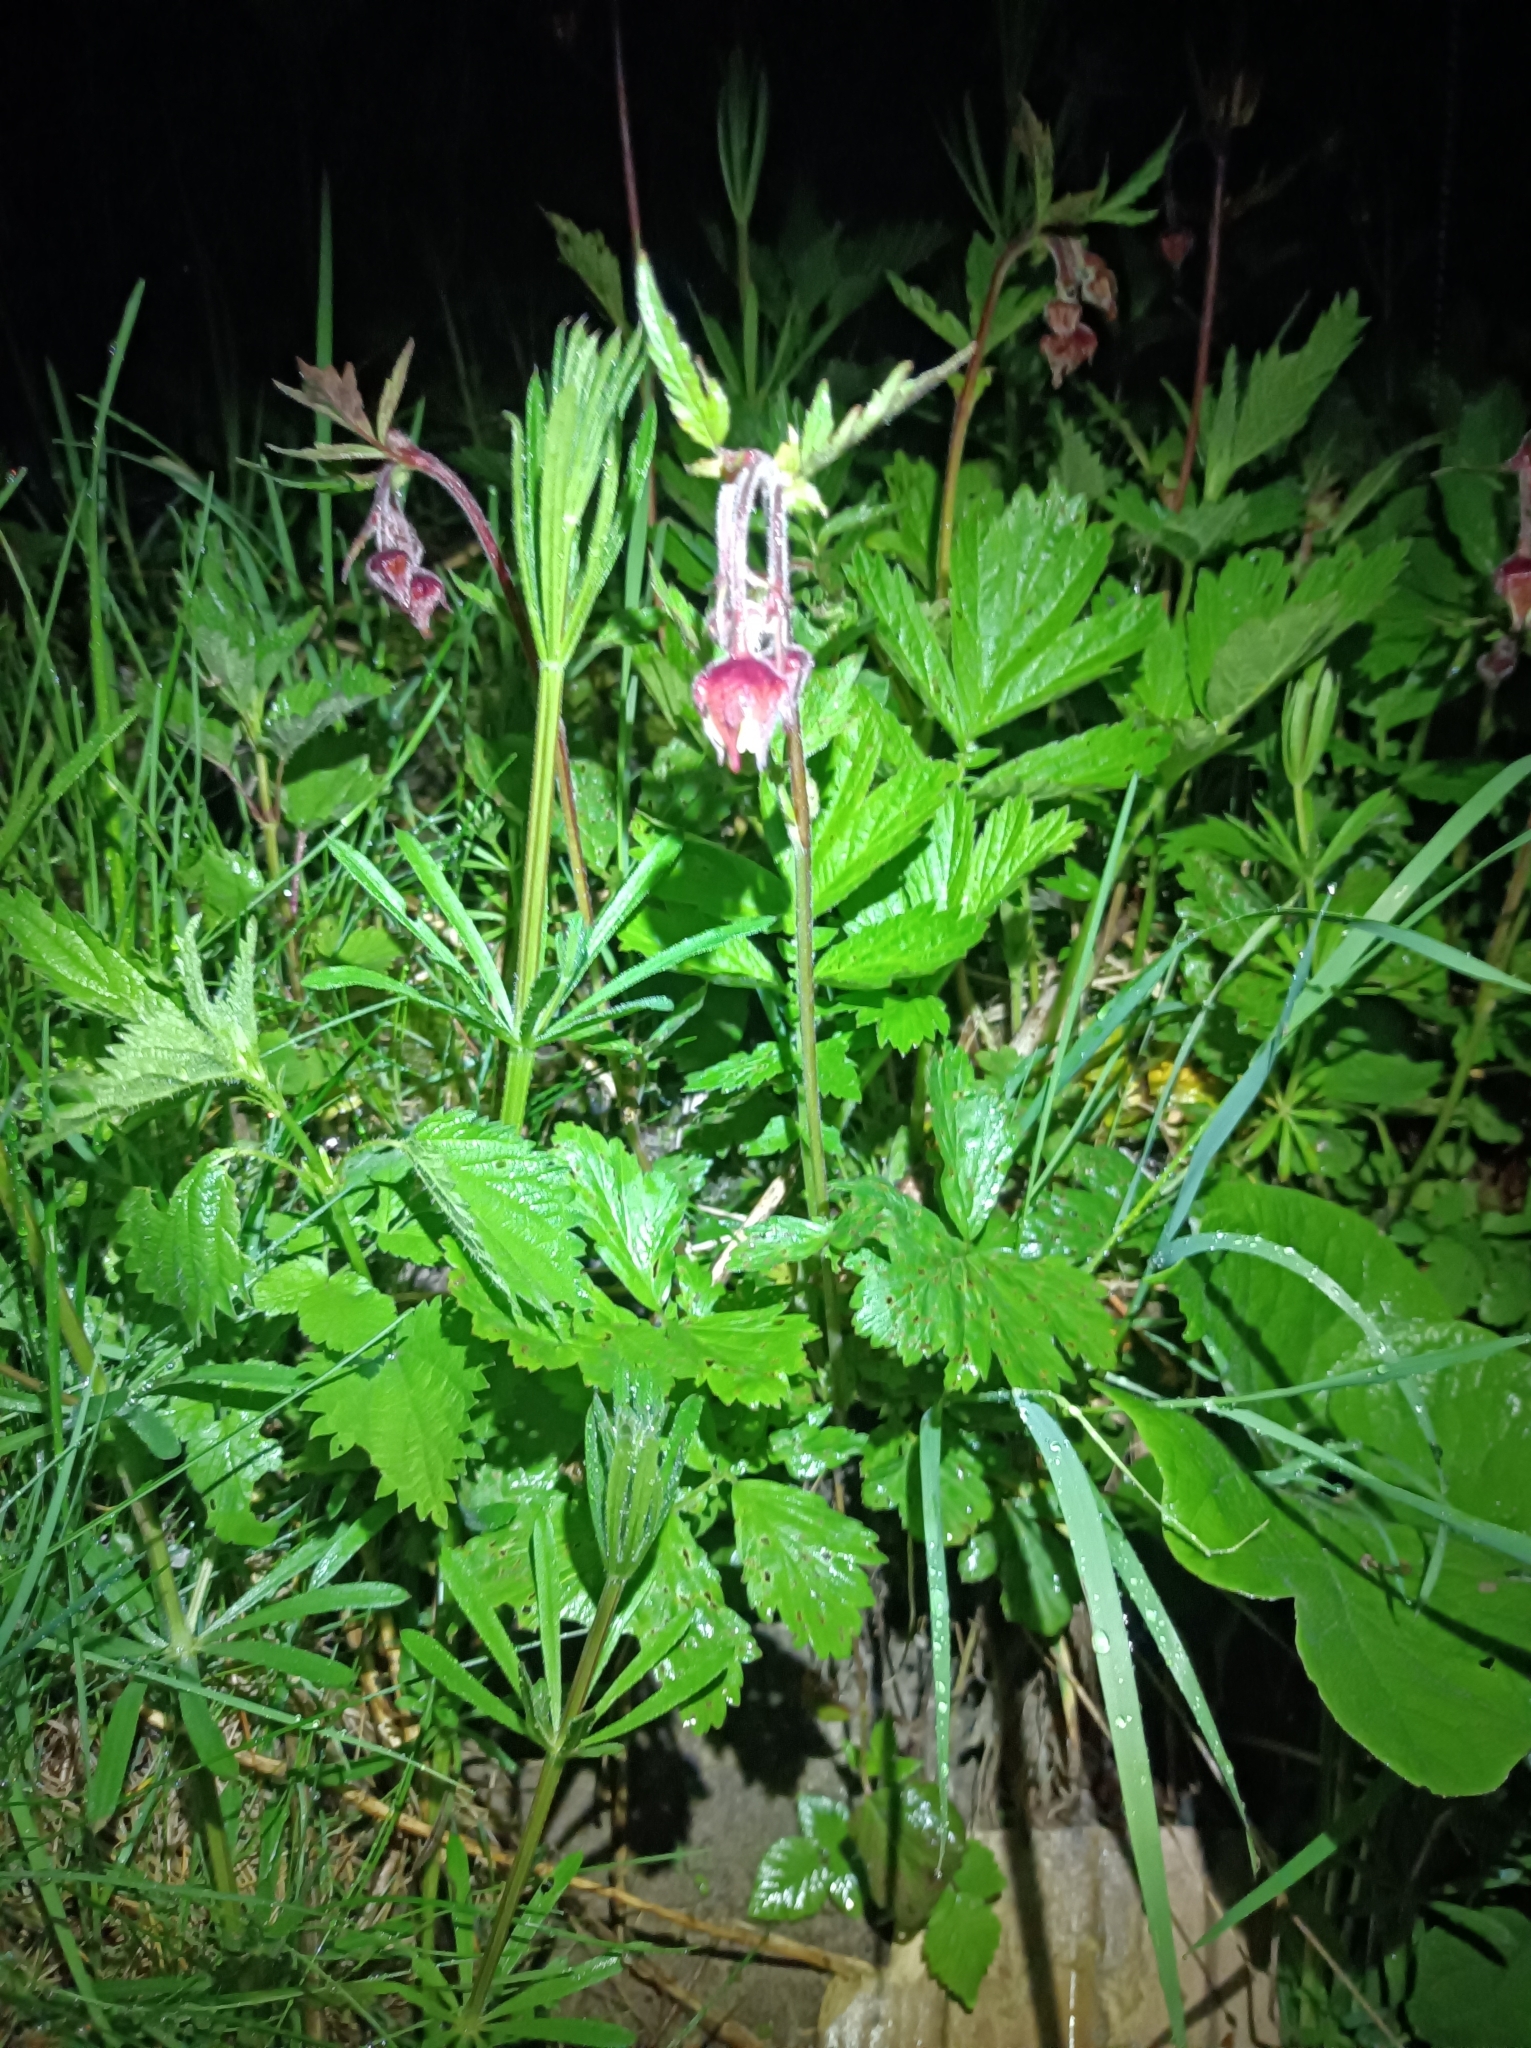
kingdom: Plantae
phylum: Tracheophyta
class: Magnoliopsida
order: Rosales
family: Rosaceae
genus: Geum
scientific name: Geum rivale
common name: Water avens
